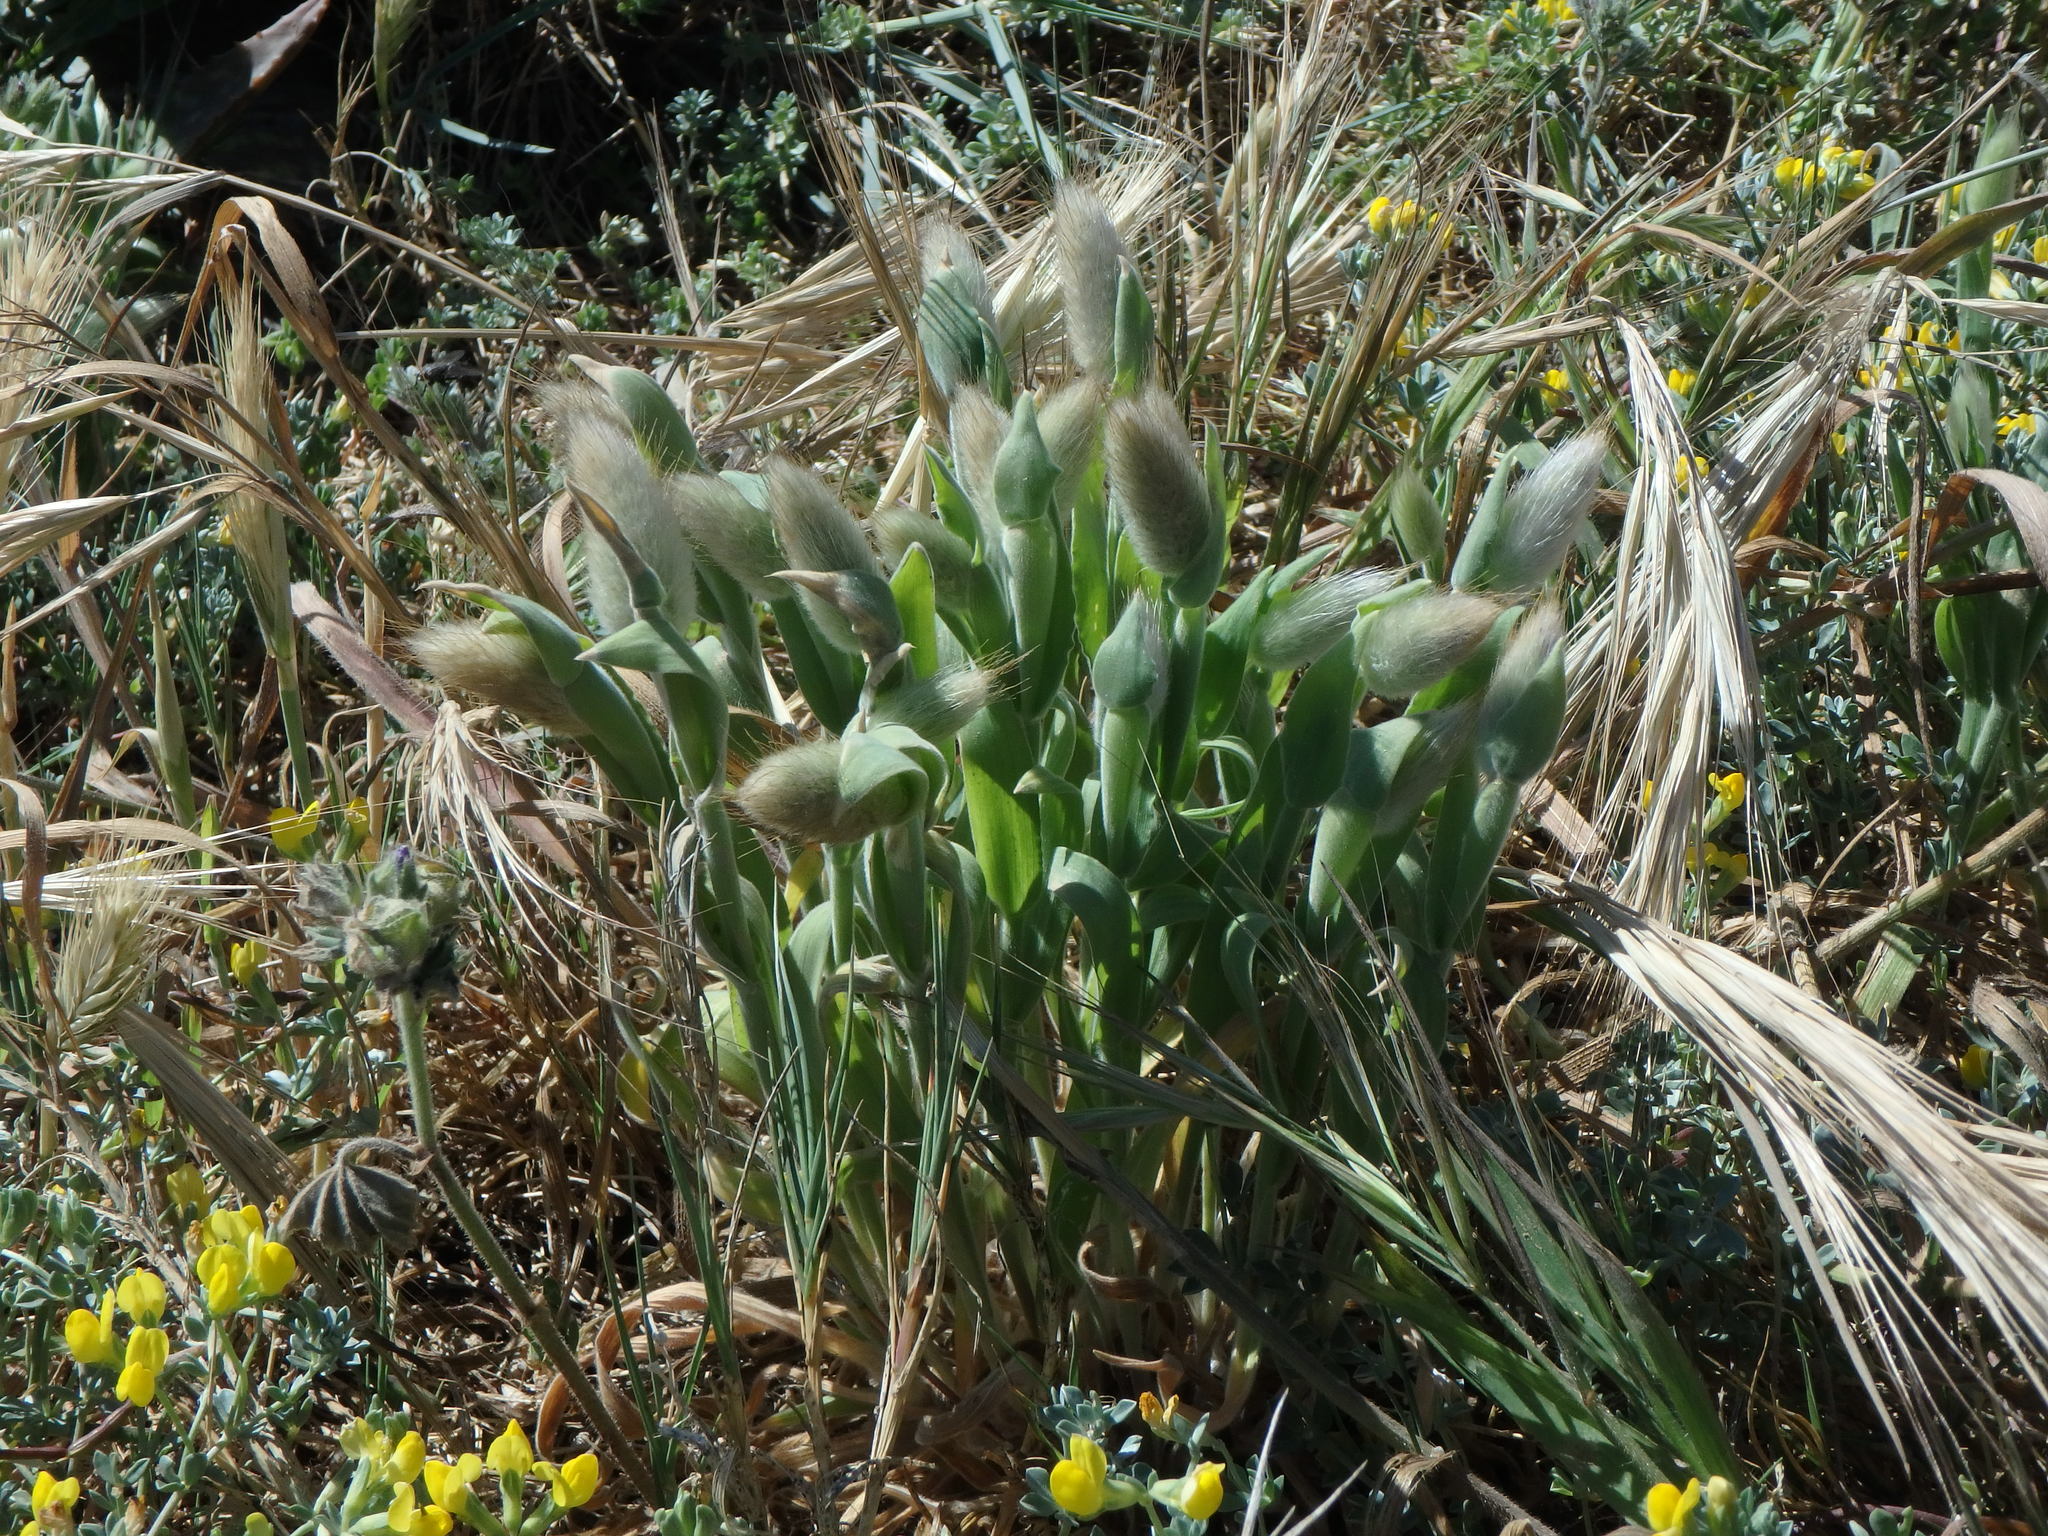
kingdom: Plantae
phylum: Tracheophyta
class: Liliopsida
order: Poales
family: Poaceae
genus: Lagurus
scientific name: Lagurus ovatus
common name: Hare's-tail
